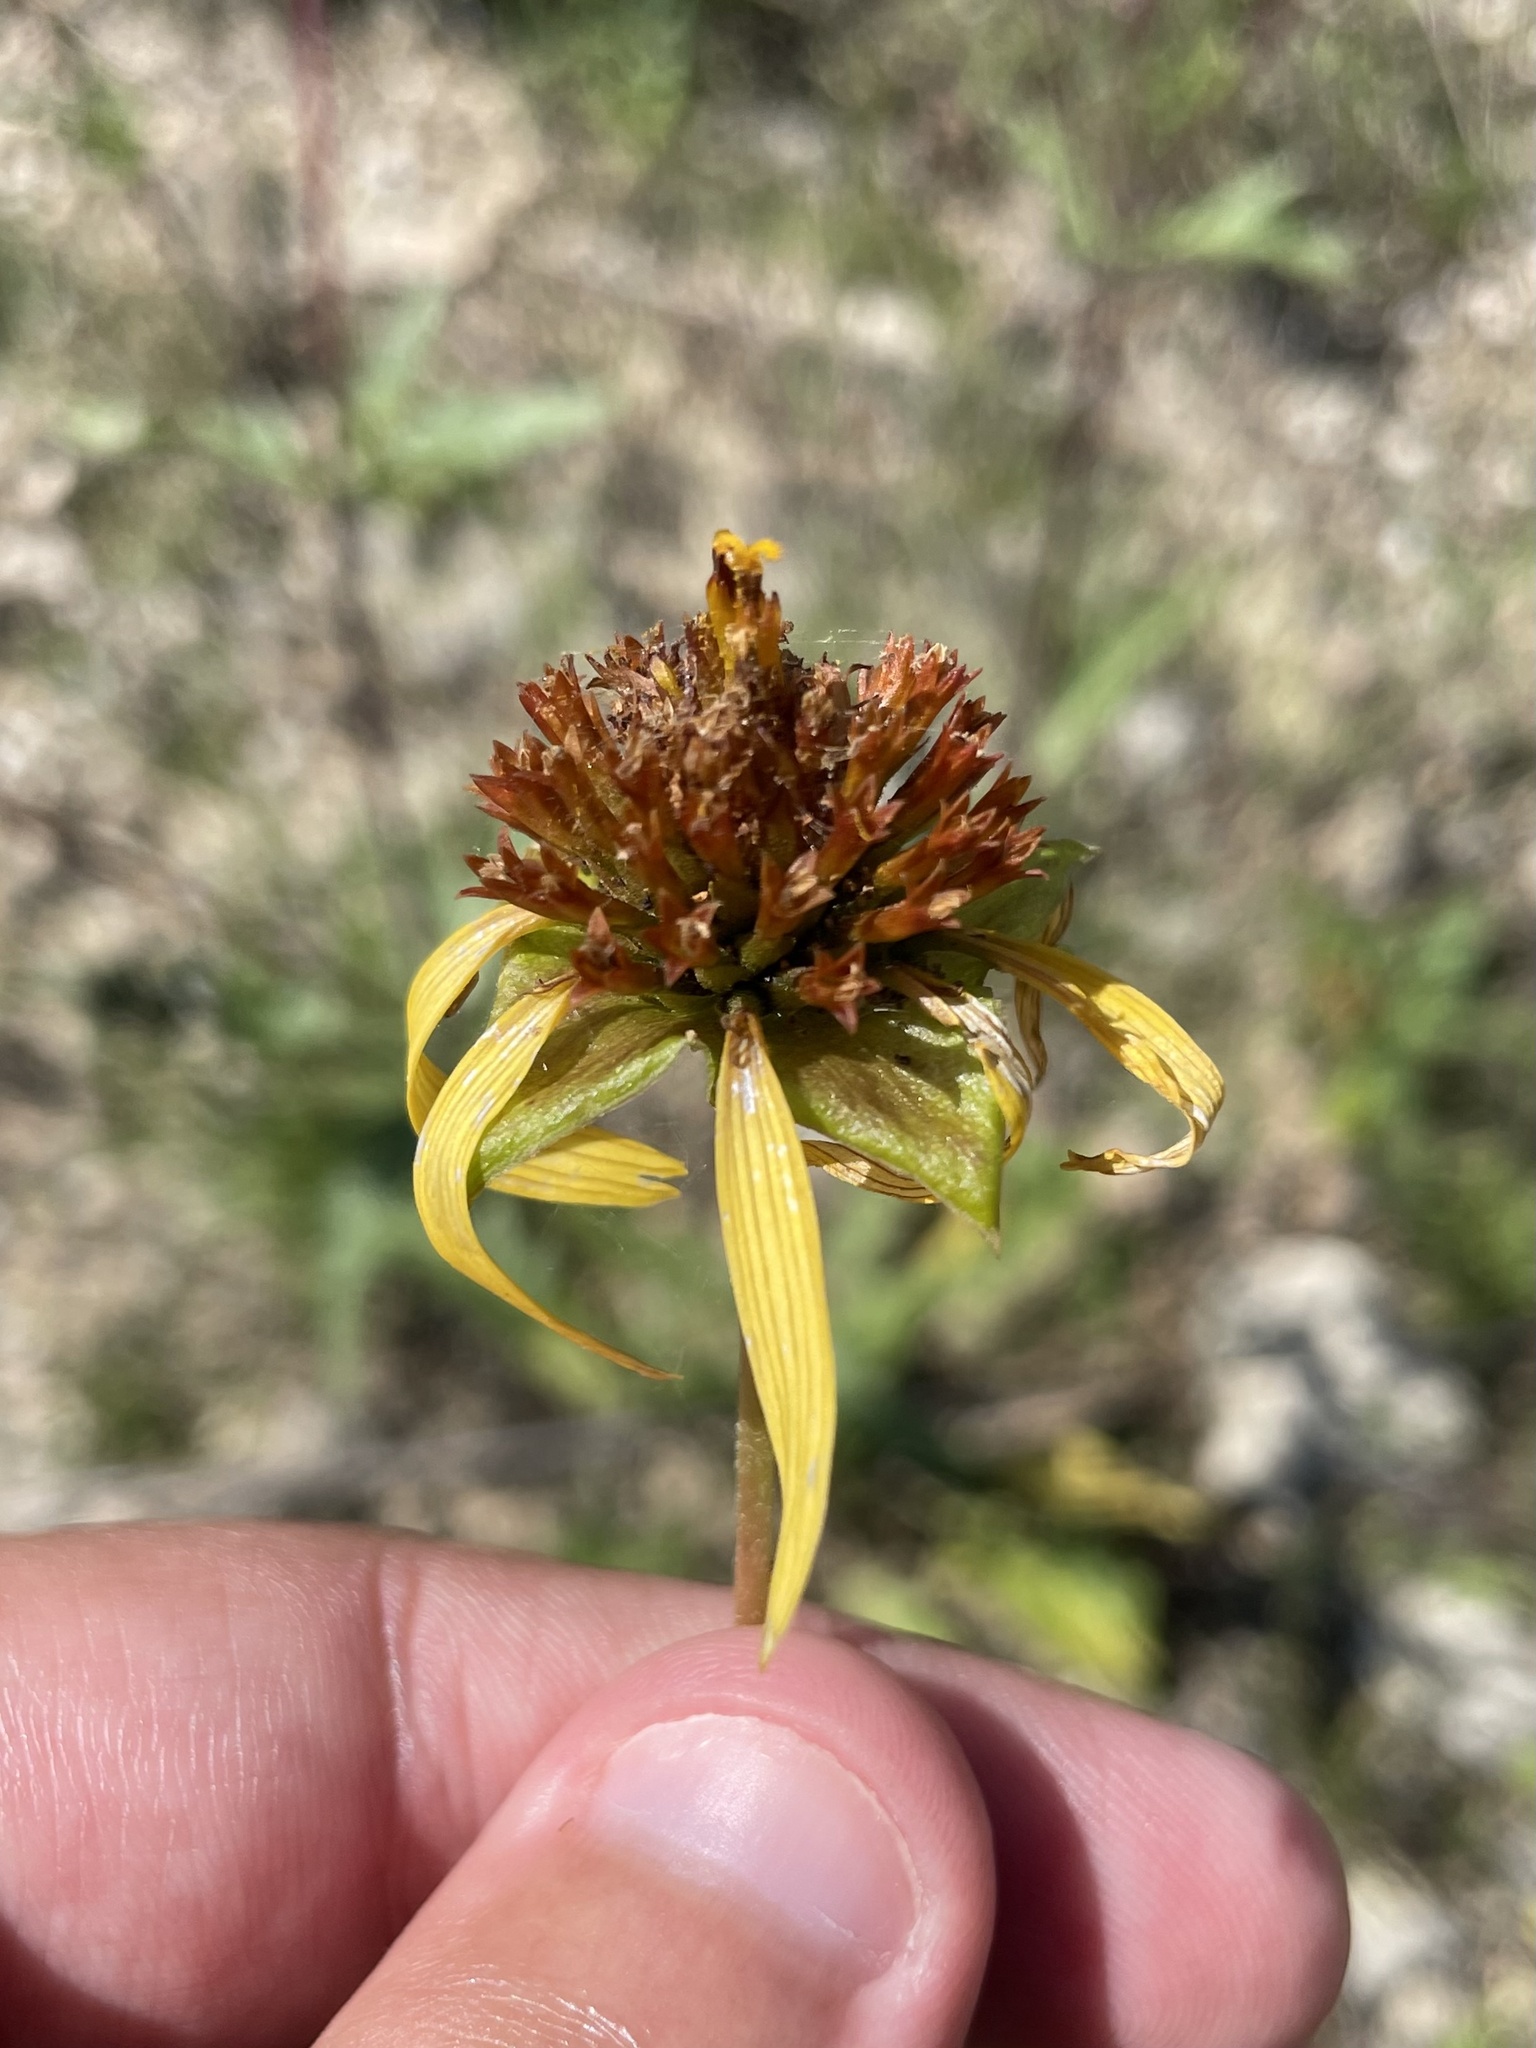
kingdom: Plantae
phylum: Tracheophyta
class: Magnoliopsida
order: Asterales
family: Asteraceae
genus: Tetragonotheca
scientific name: Tetragonotheca texana
